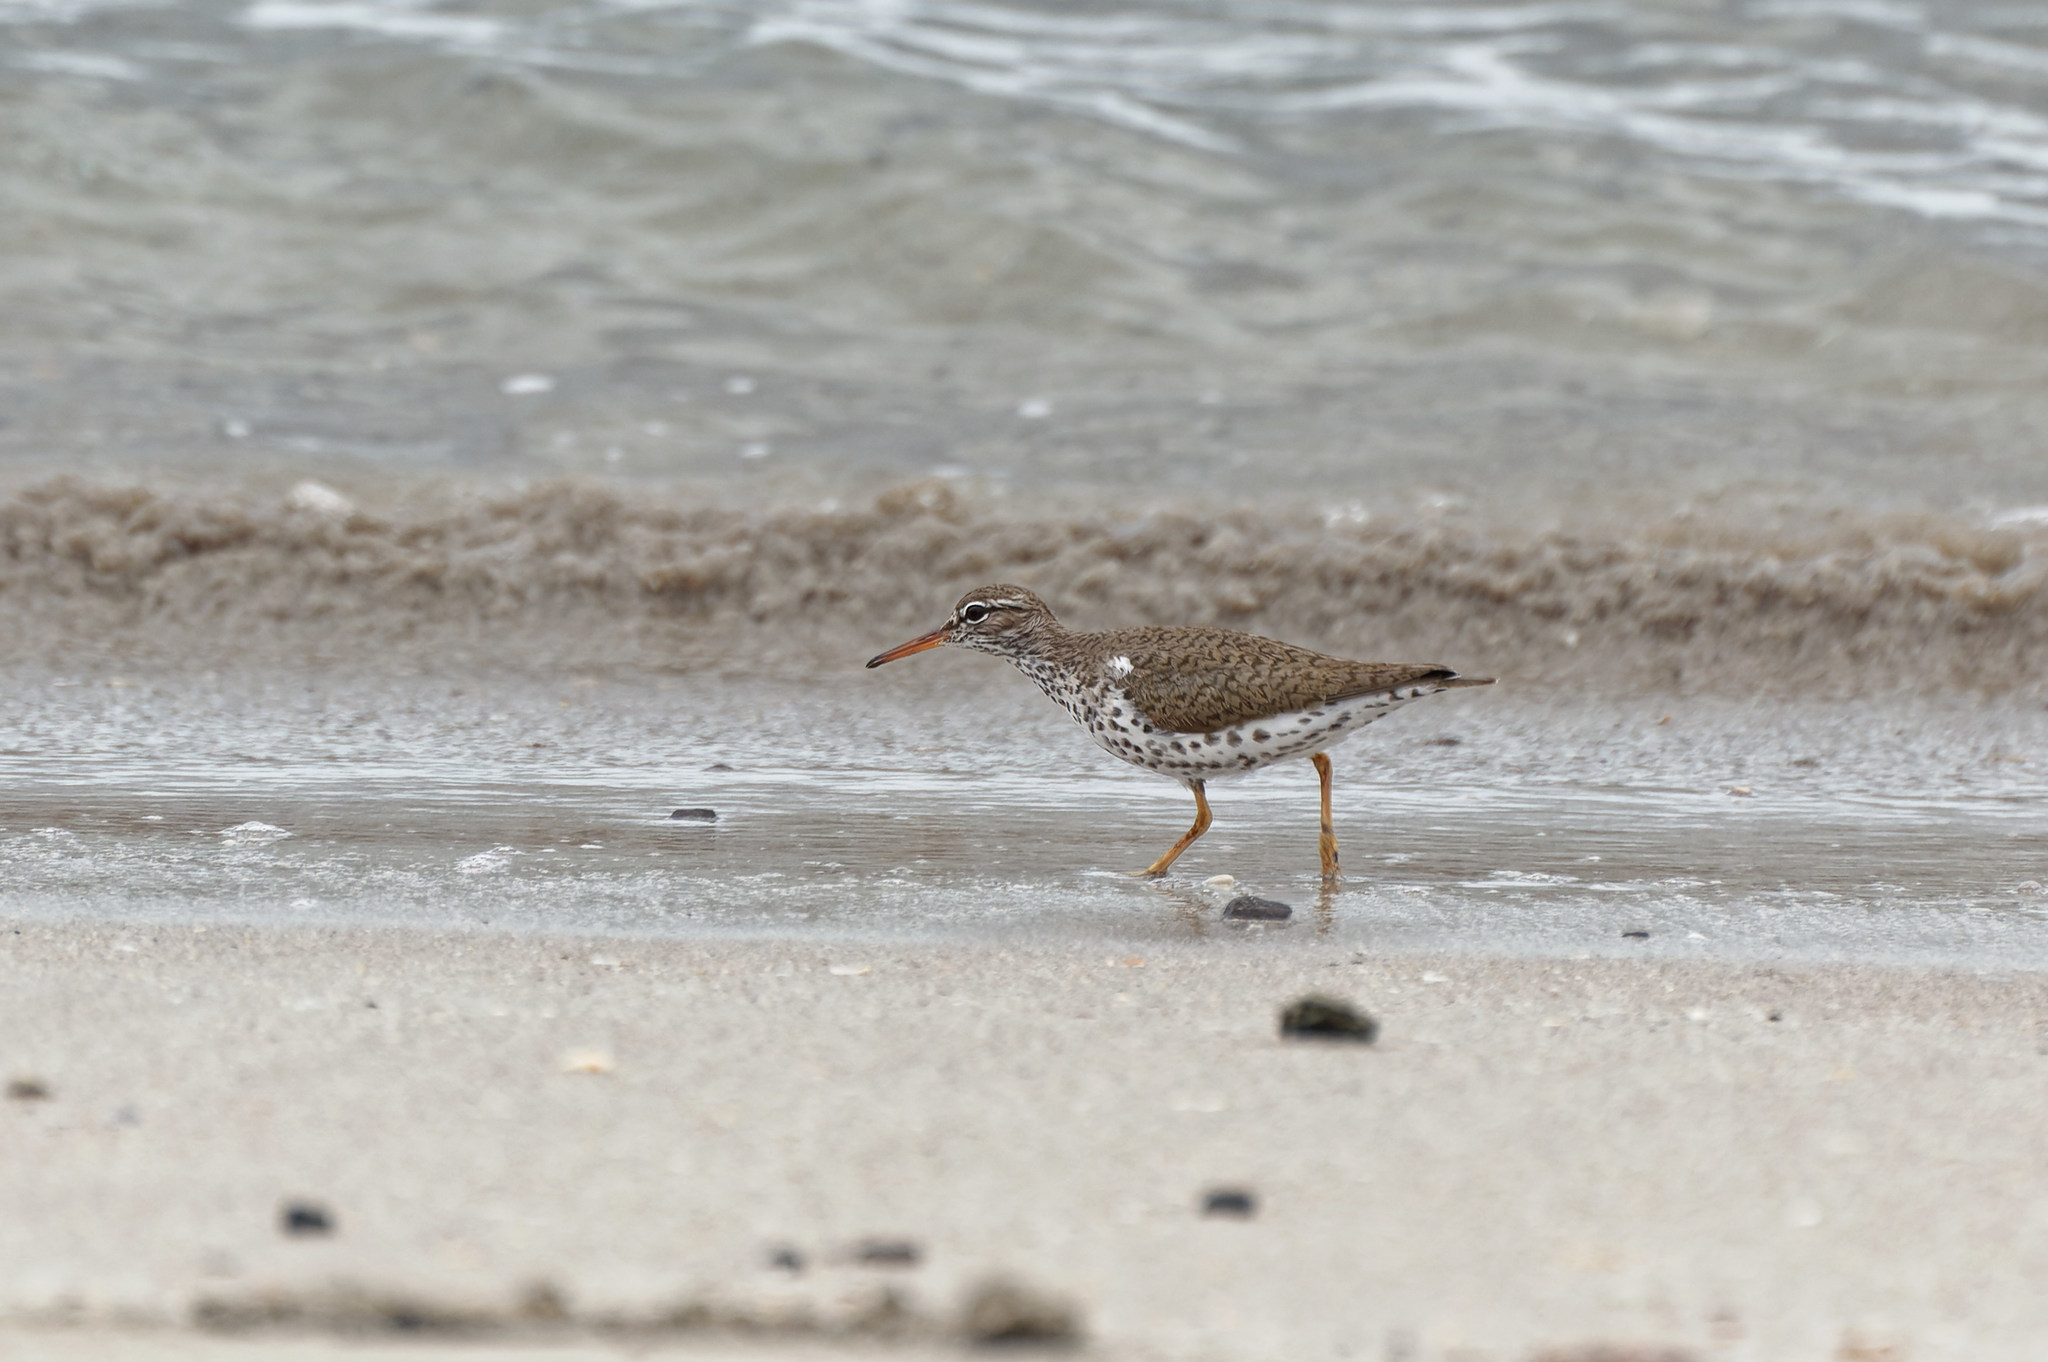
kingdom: Animalia
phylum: Chordata
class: Aves
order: Charadriiformes
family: Scolopacidae
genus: Actitis
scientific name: Actitis macularius
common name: Spotted sandpiper
